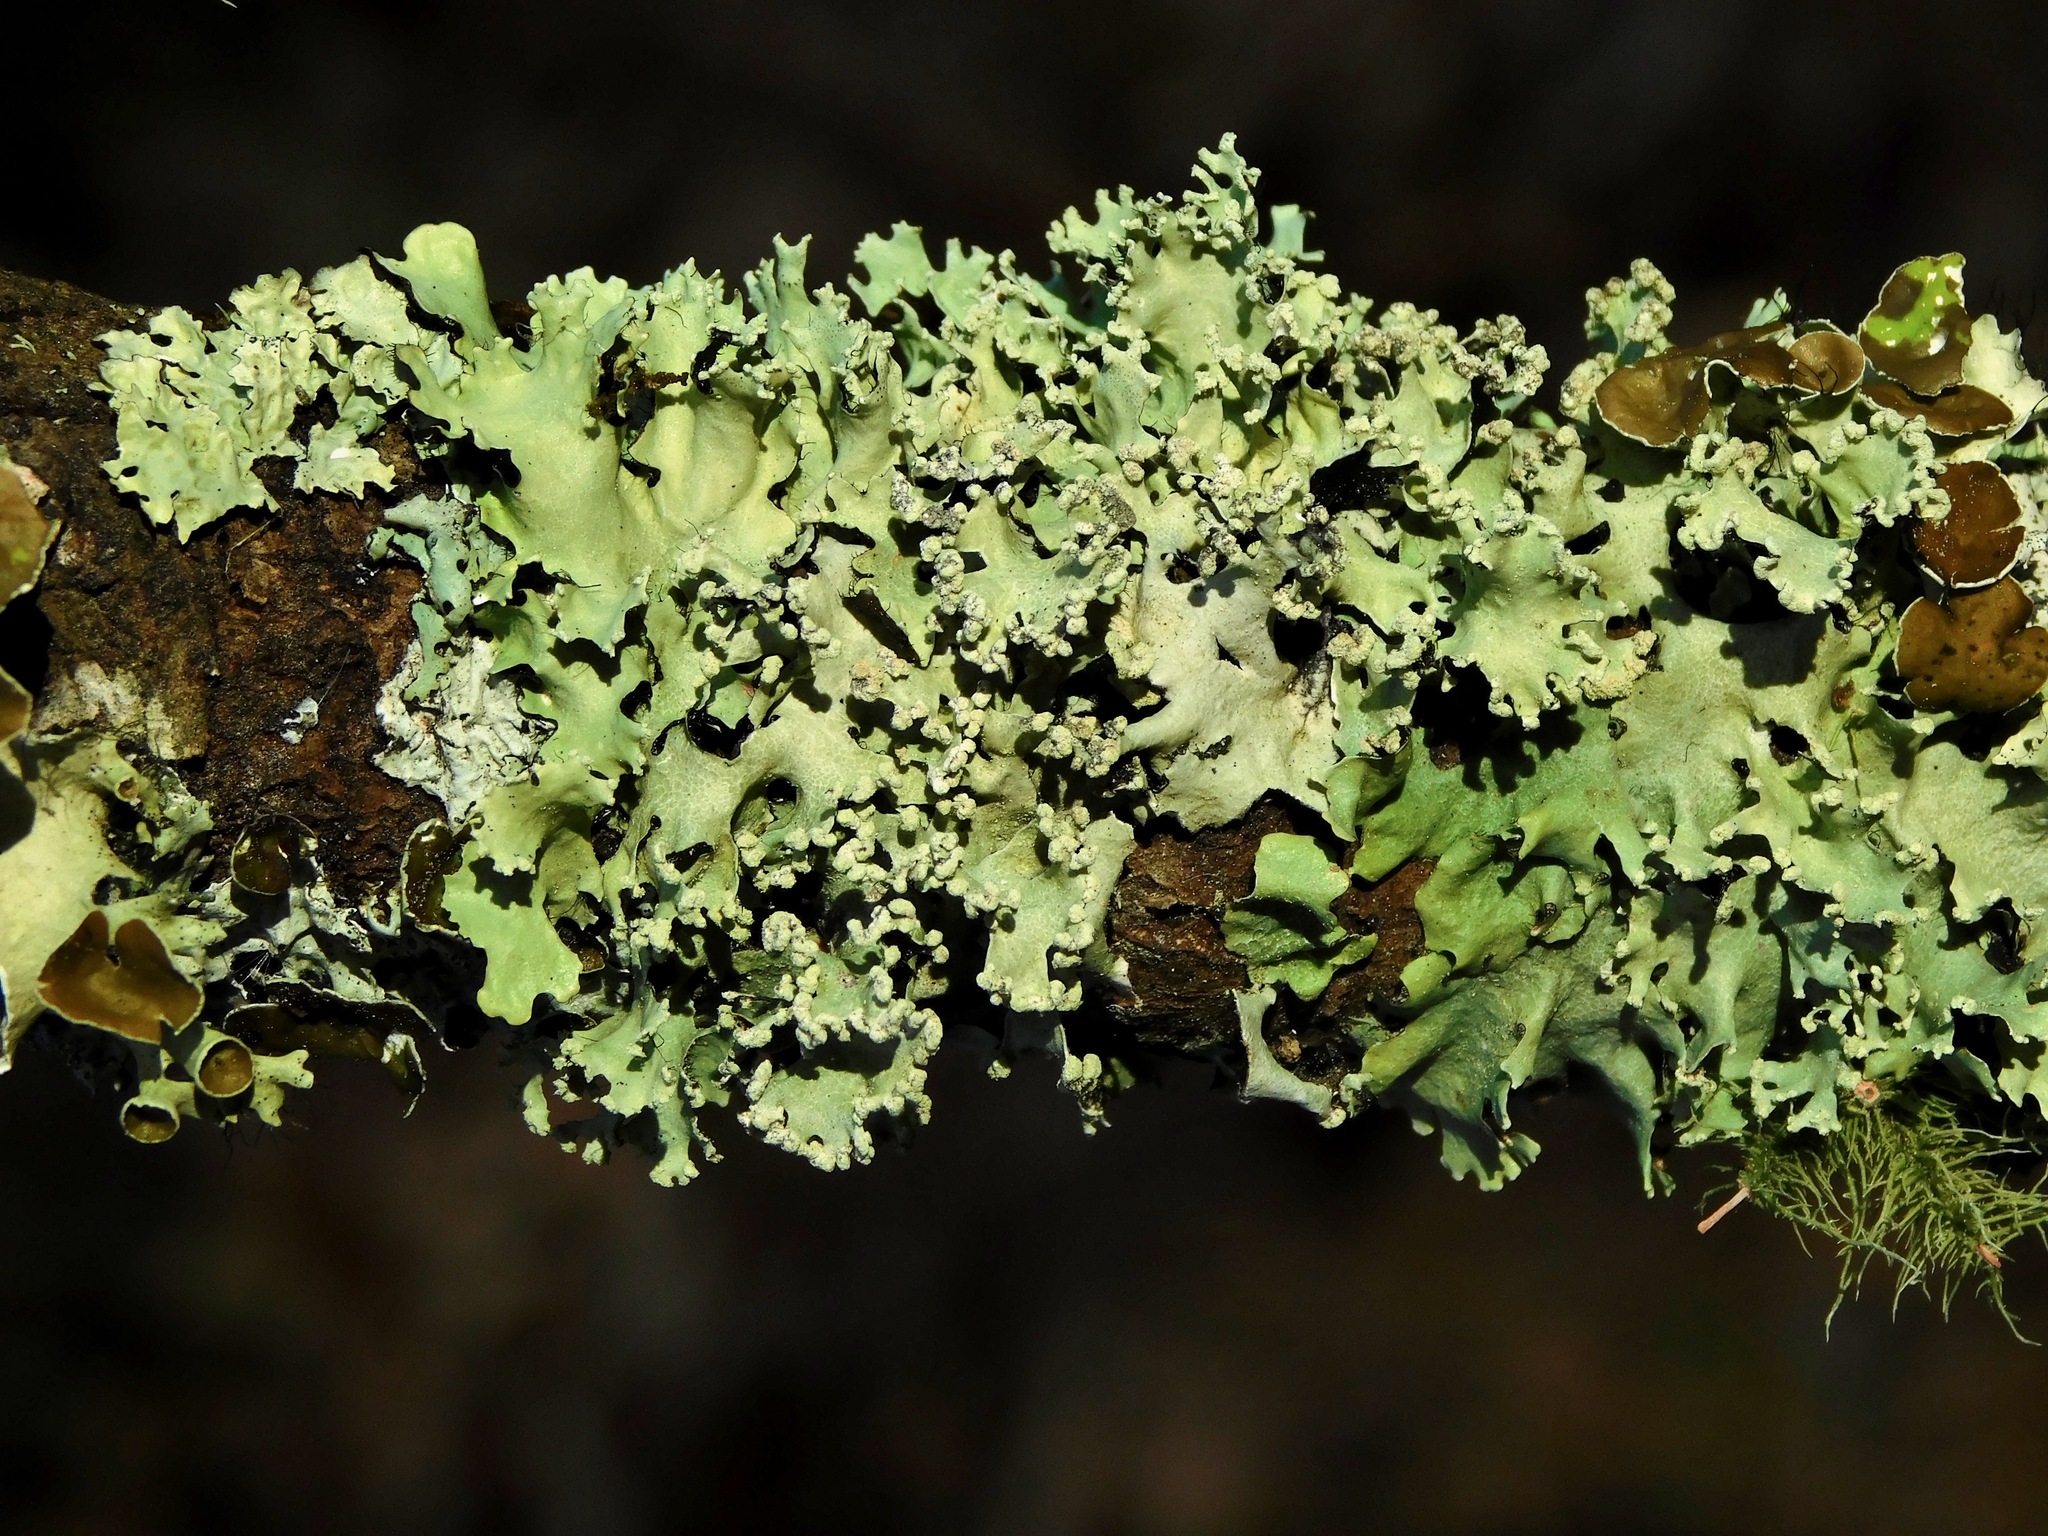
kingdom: Fungi
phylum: Ascomycota
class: Lecanoromycetes
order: Lecanorales
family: Parmeliaceae
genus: Parmotrema
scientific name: Parmotrema reticulatum
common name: Black sheet lichen
